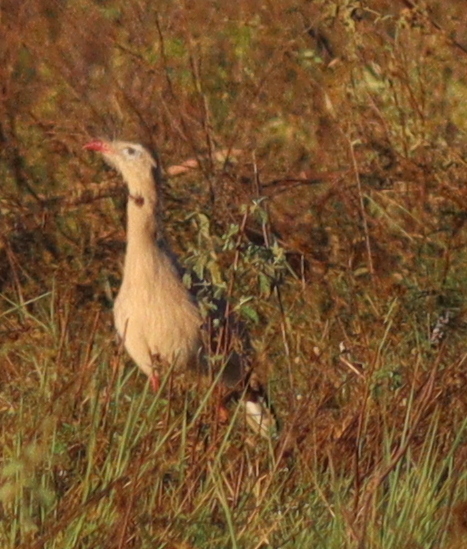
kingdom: Animalia
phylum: Chordata
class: Aves
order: Cariamiformes
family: Cariamidae
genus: Cariama
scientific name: Cariama cristata
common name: Red-legged seriema
